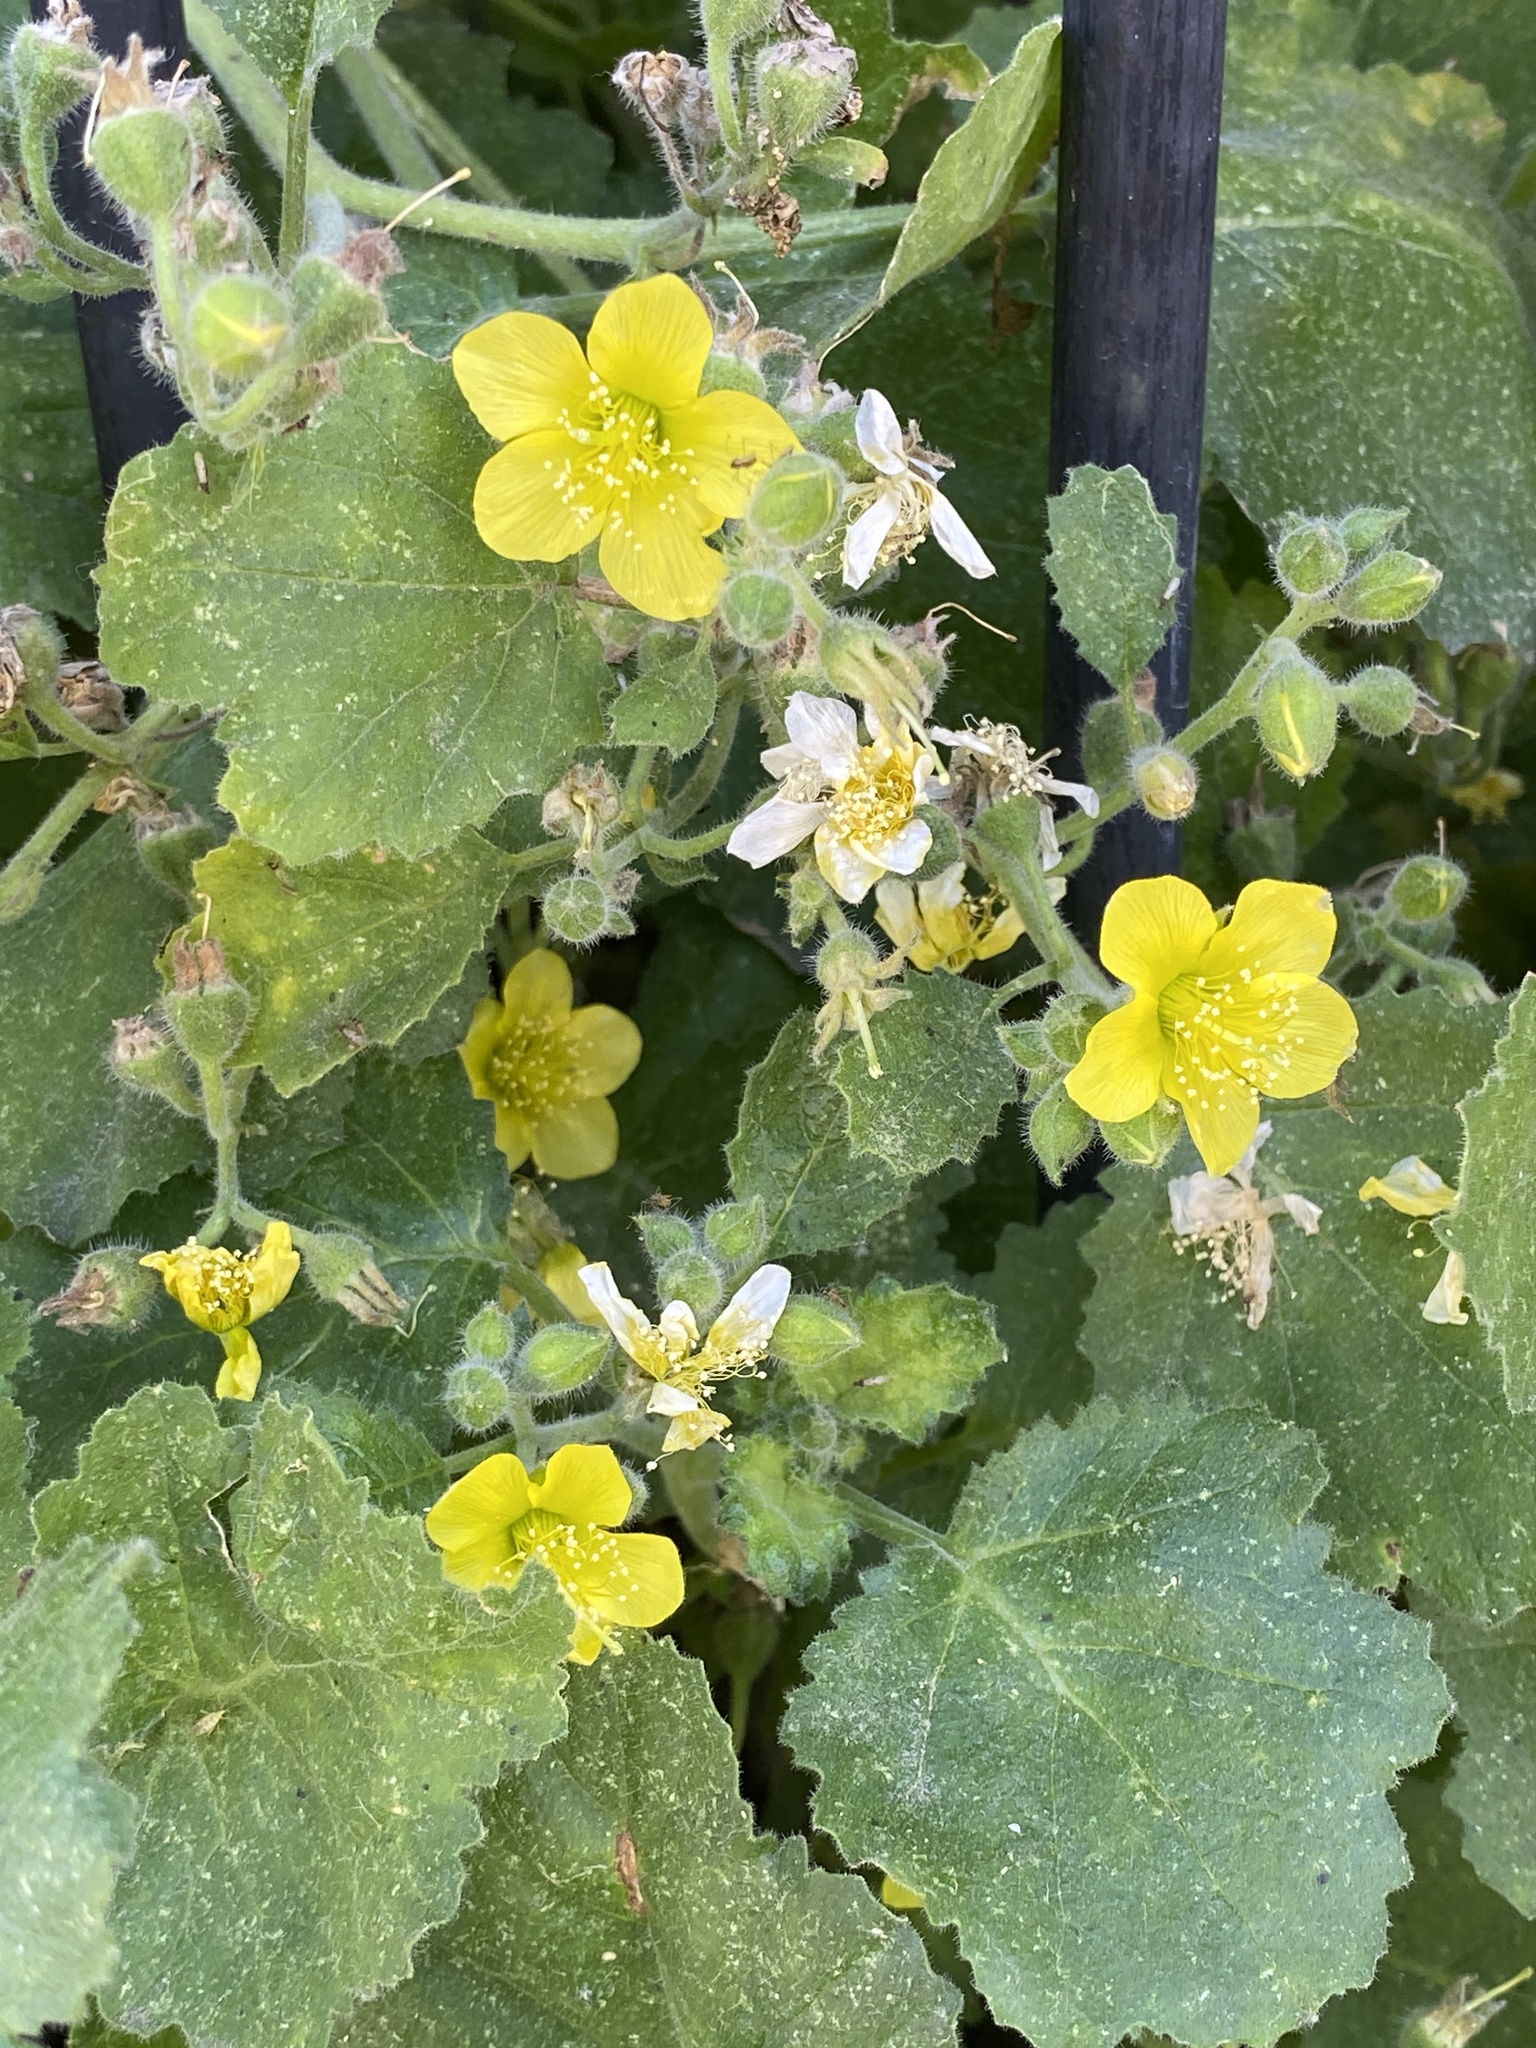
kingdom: Plantae
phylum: Tracheophyta
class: Magnoliopsida
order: Cornales
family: Loasaceae
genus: Eucnide
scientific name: Eucnide lobata
